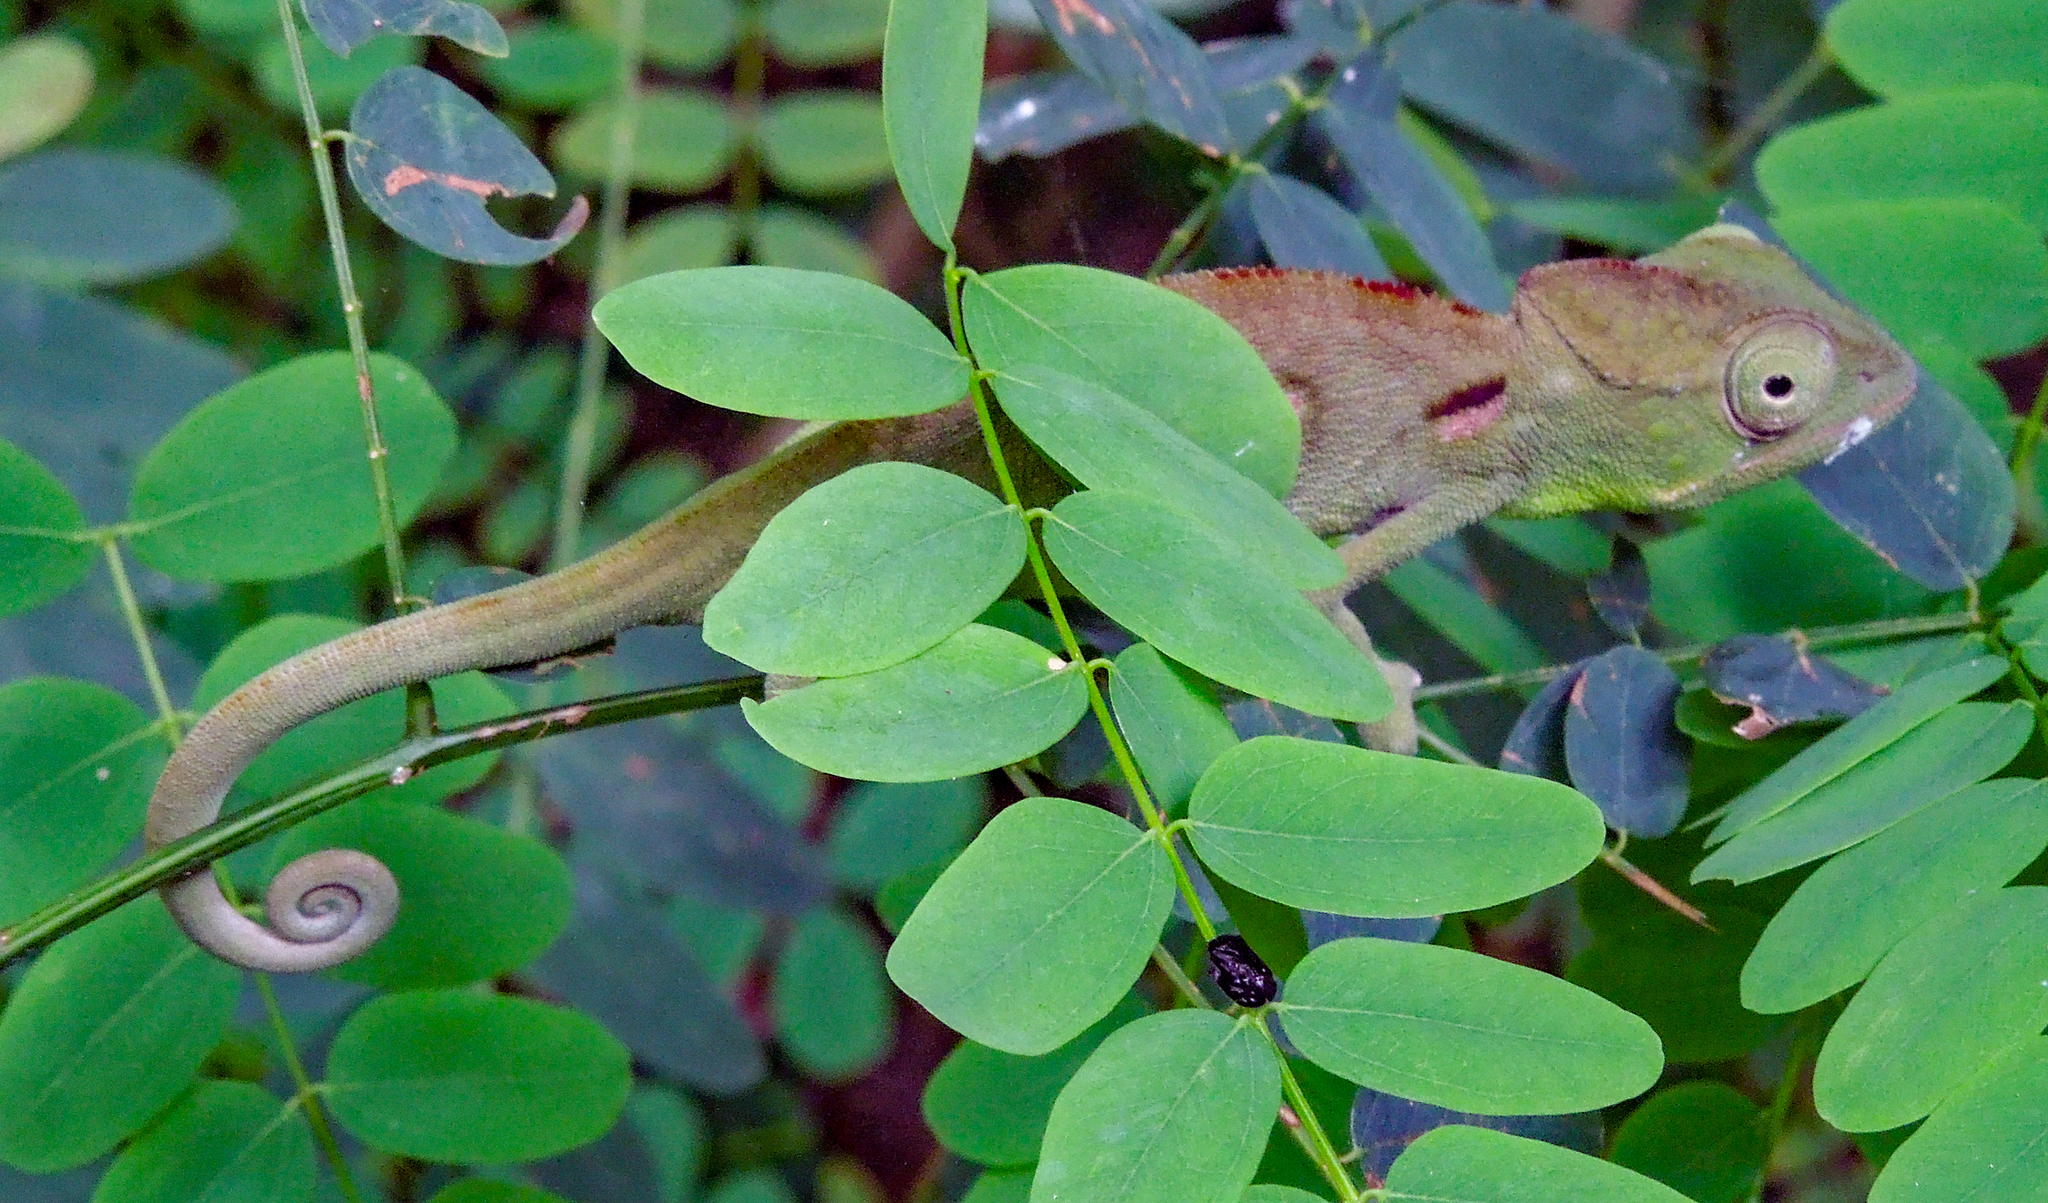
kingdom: Animalia
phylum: Chordata
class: Squamata
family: Chamaeleonidae
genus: Furcifer
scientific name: Furcifer oustaleti
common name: Oustalet's chameleon
